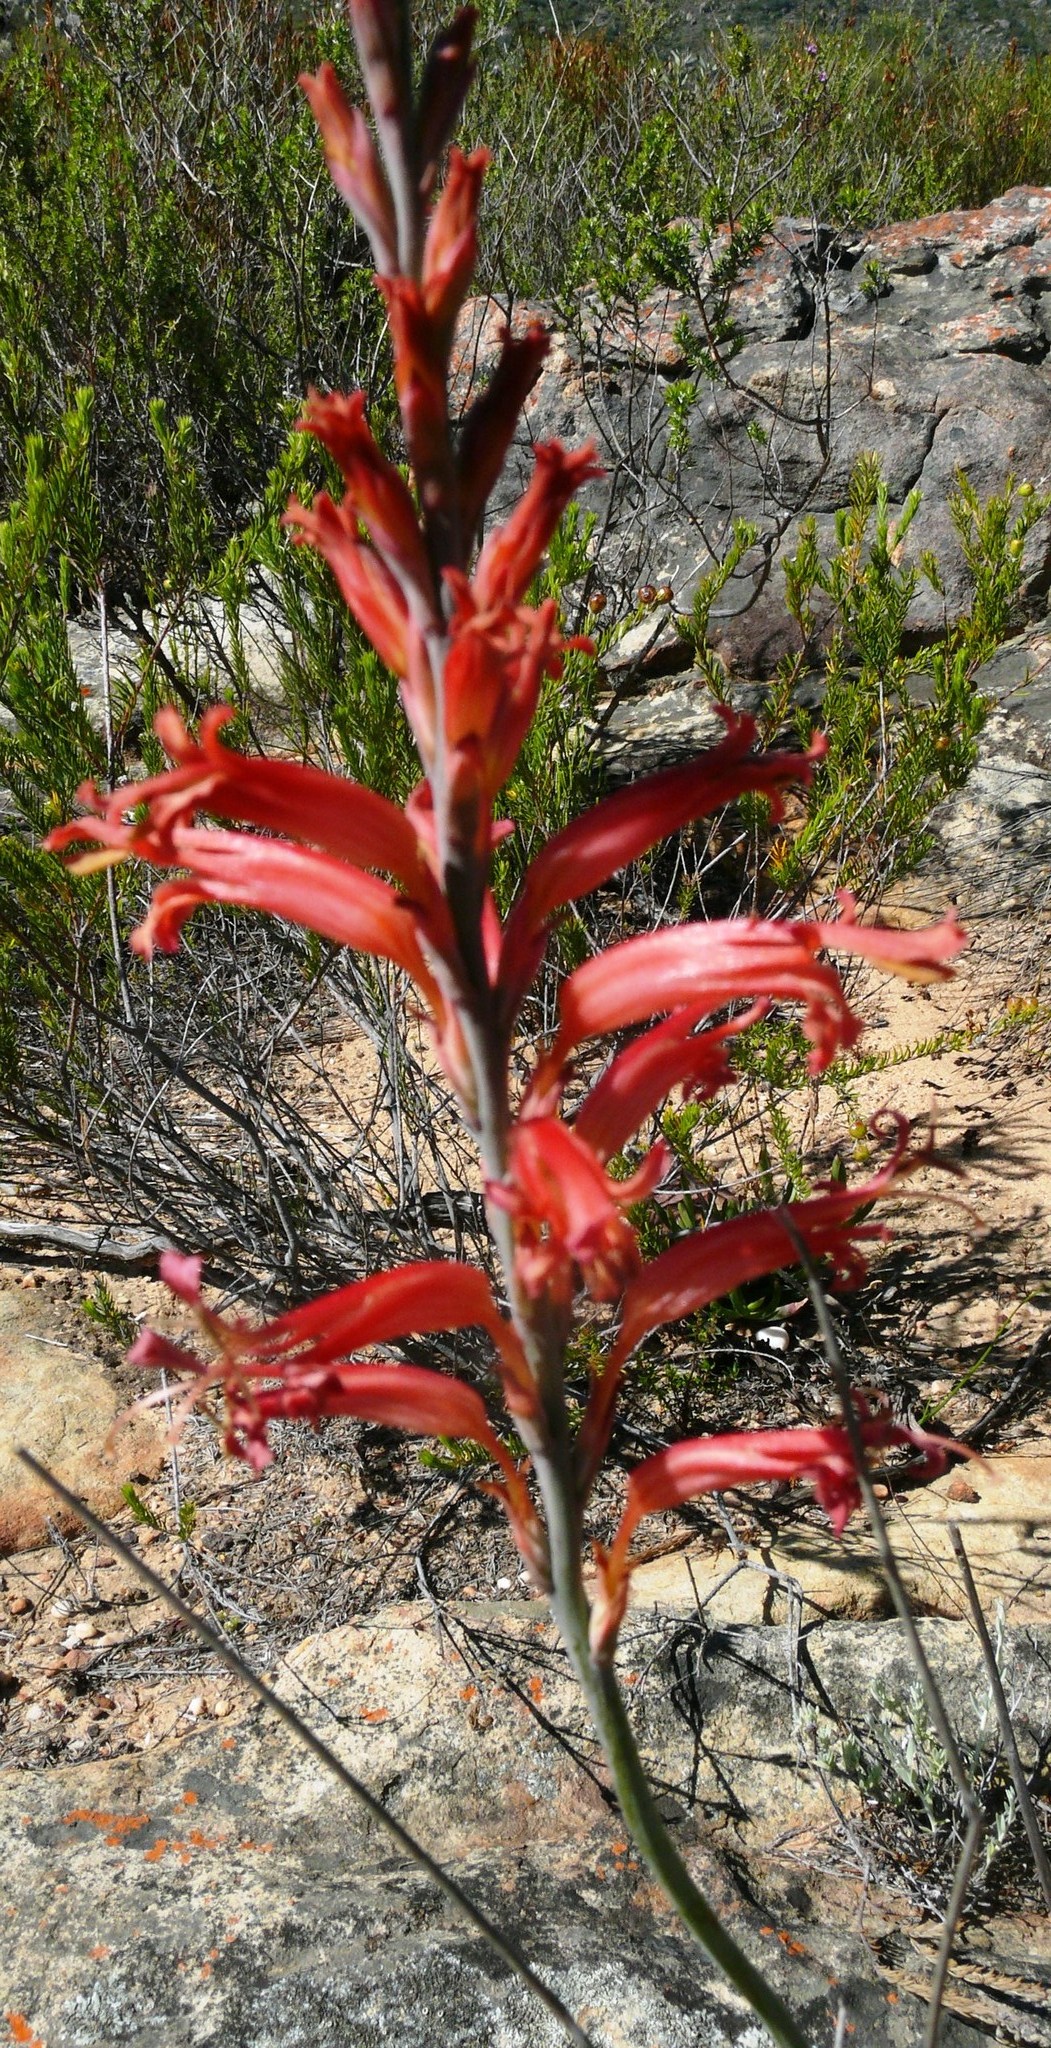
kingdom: Plantae
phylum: Tracheophyta
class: Liliopsida
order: Asparagales
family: Iridaceae
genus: Tritoniopsis
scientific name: Tritoniopsis antholyza
